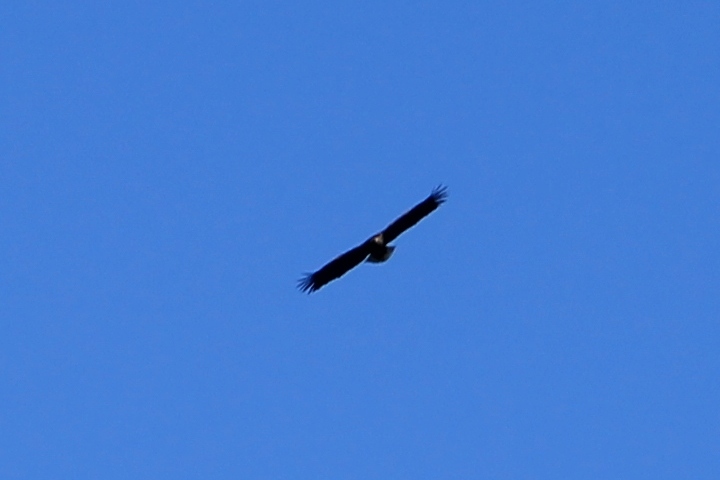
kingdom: Animalia
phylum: Chordata
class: Aves
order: Accipitriformes
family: Accipitridae
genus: Haliaeetus
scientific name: Haliaeetus albicilla
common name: White-tailed eagle
